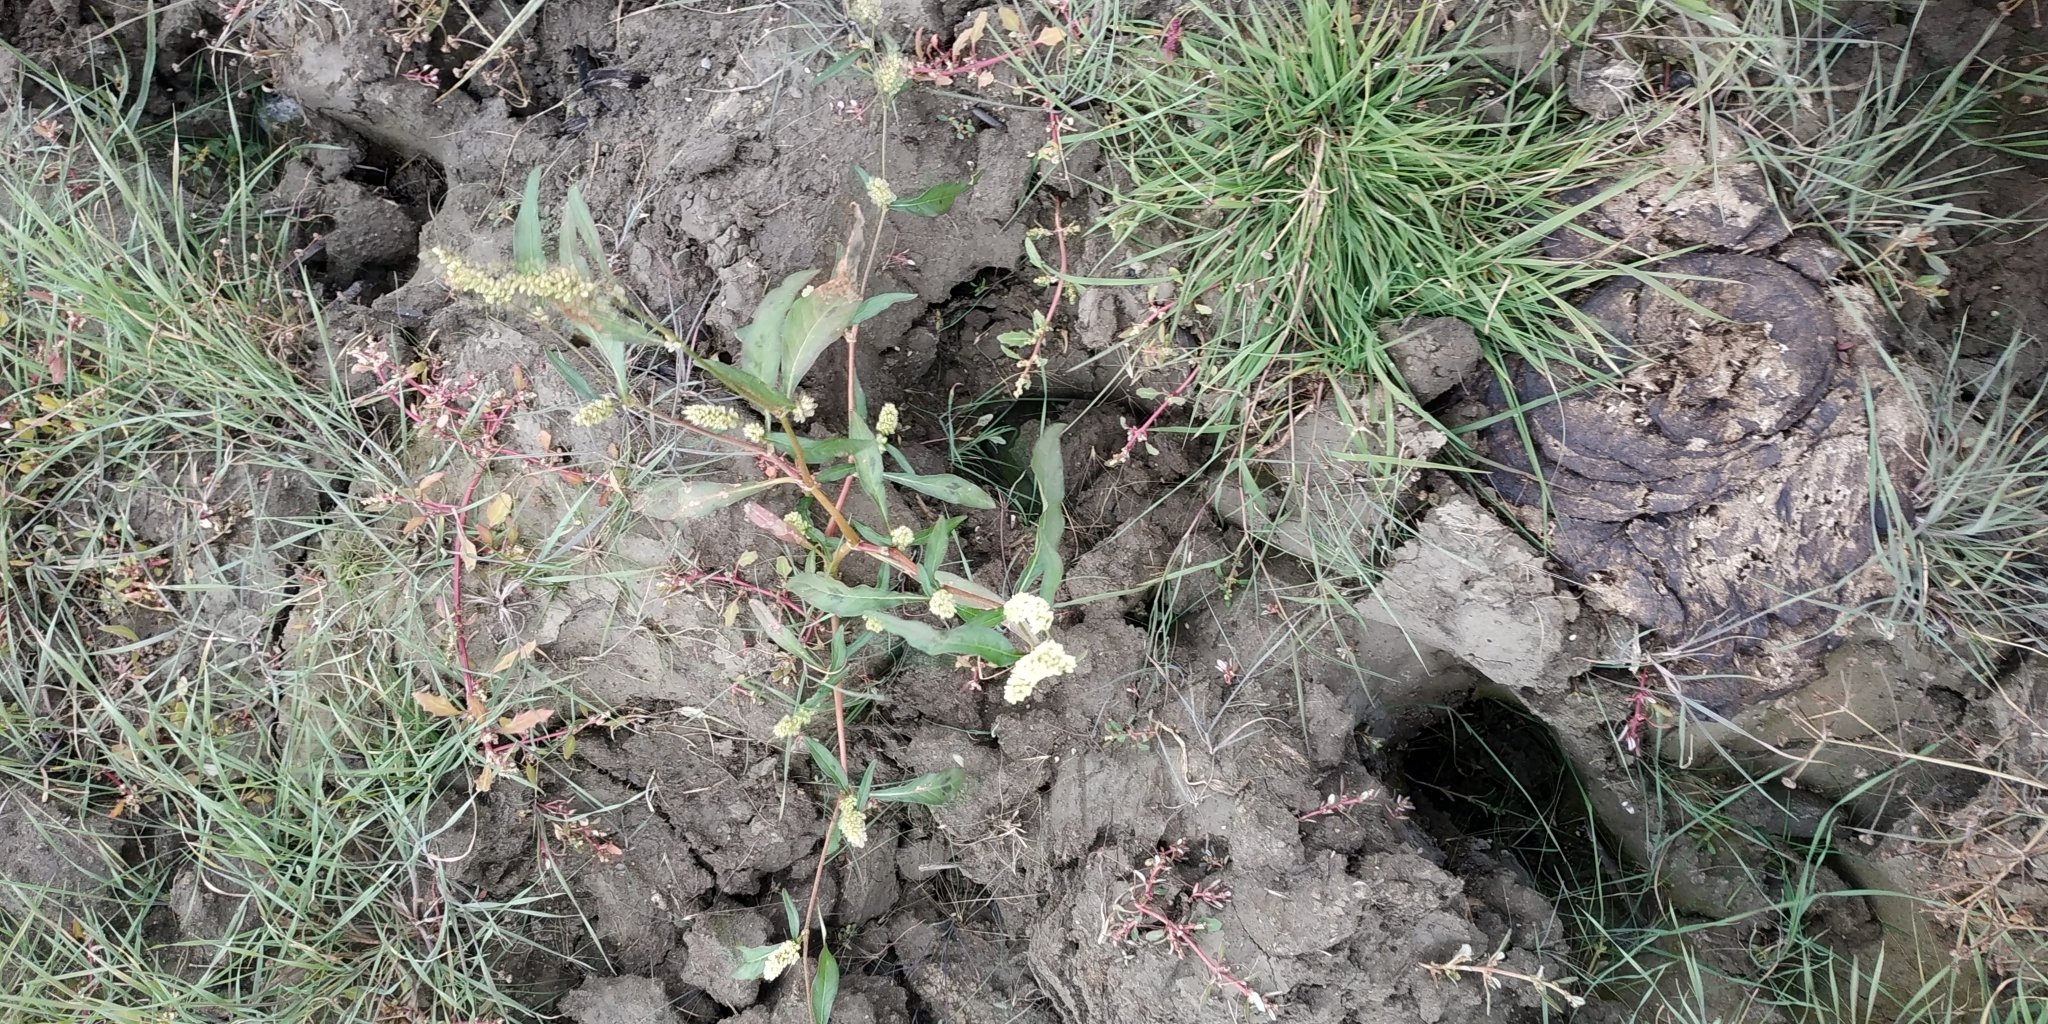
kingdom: Plantae
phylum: Tracheophyta
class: Magnoliopsida
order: Caryophyllales
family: Polygonaceae
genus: Persicaria
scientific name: Persicaria lapathifolia
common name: Curlytop knotweed
